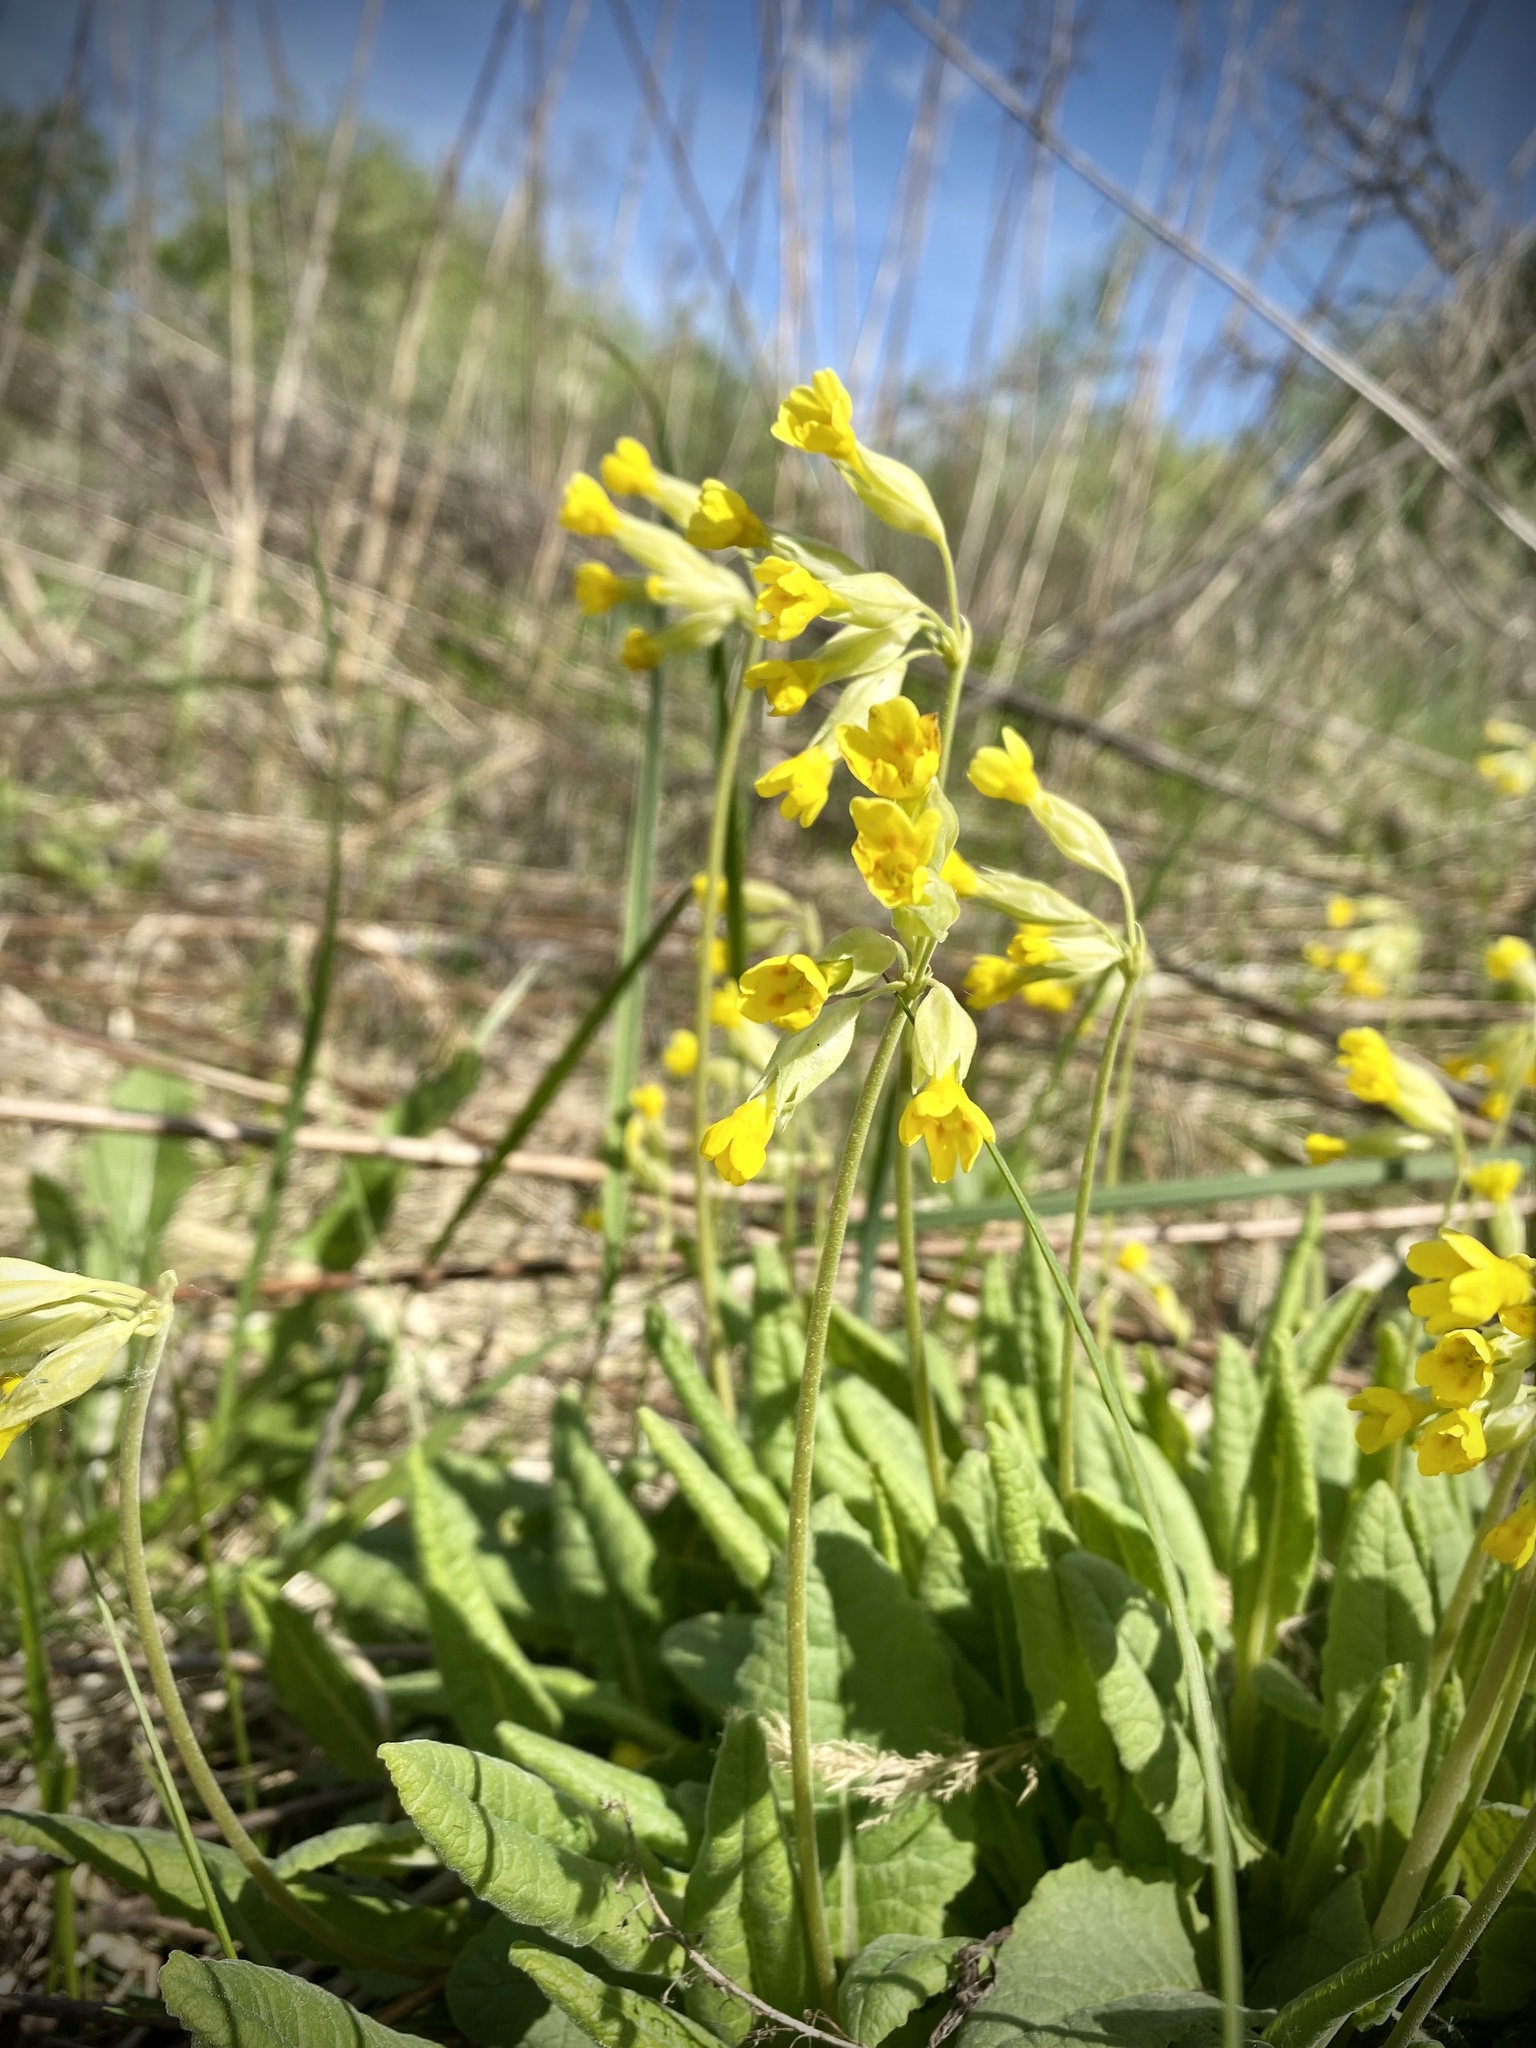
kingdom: Plantae
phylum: Tracheophyta
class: Magnoliopsida
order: Ericales
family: Primulaceae
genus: Primula
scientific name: Primula veris
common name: Cowslip
